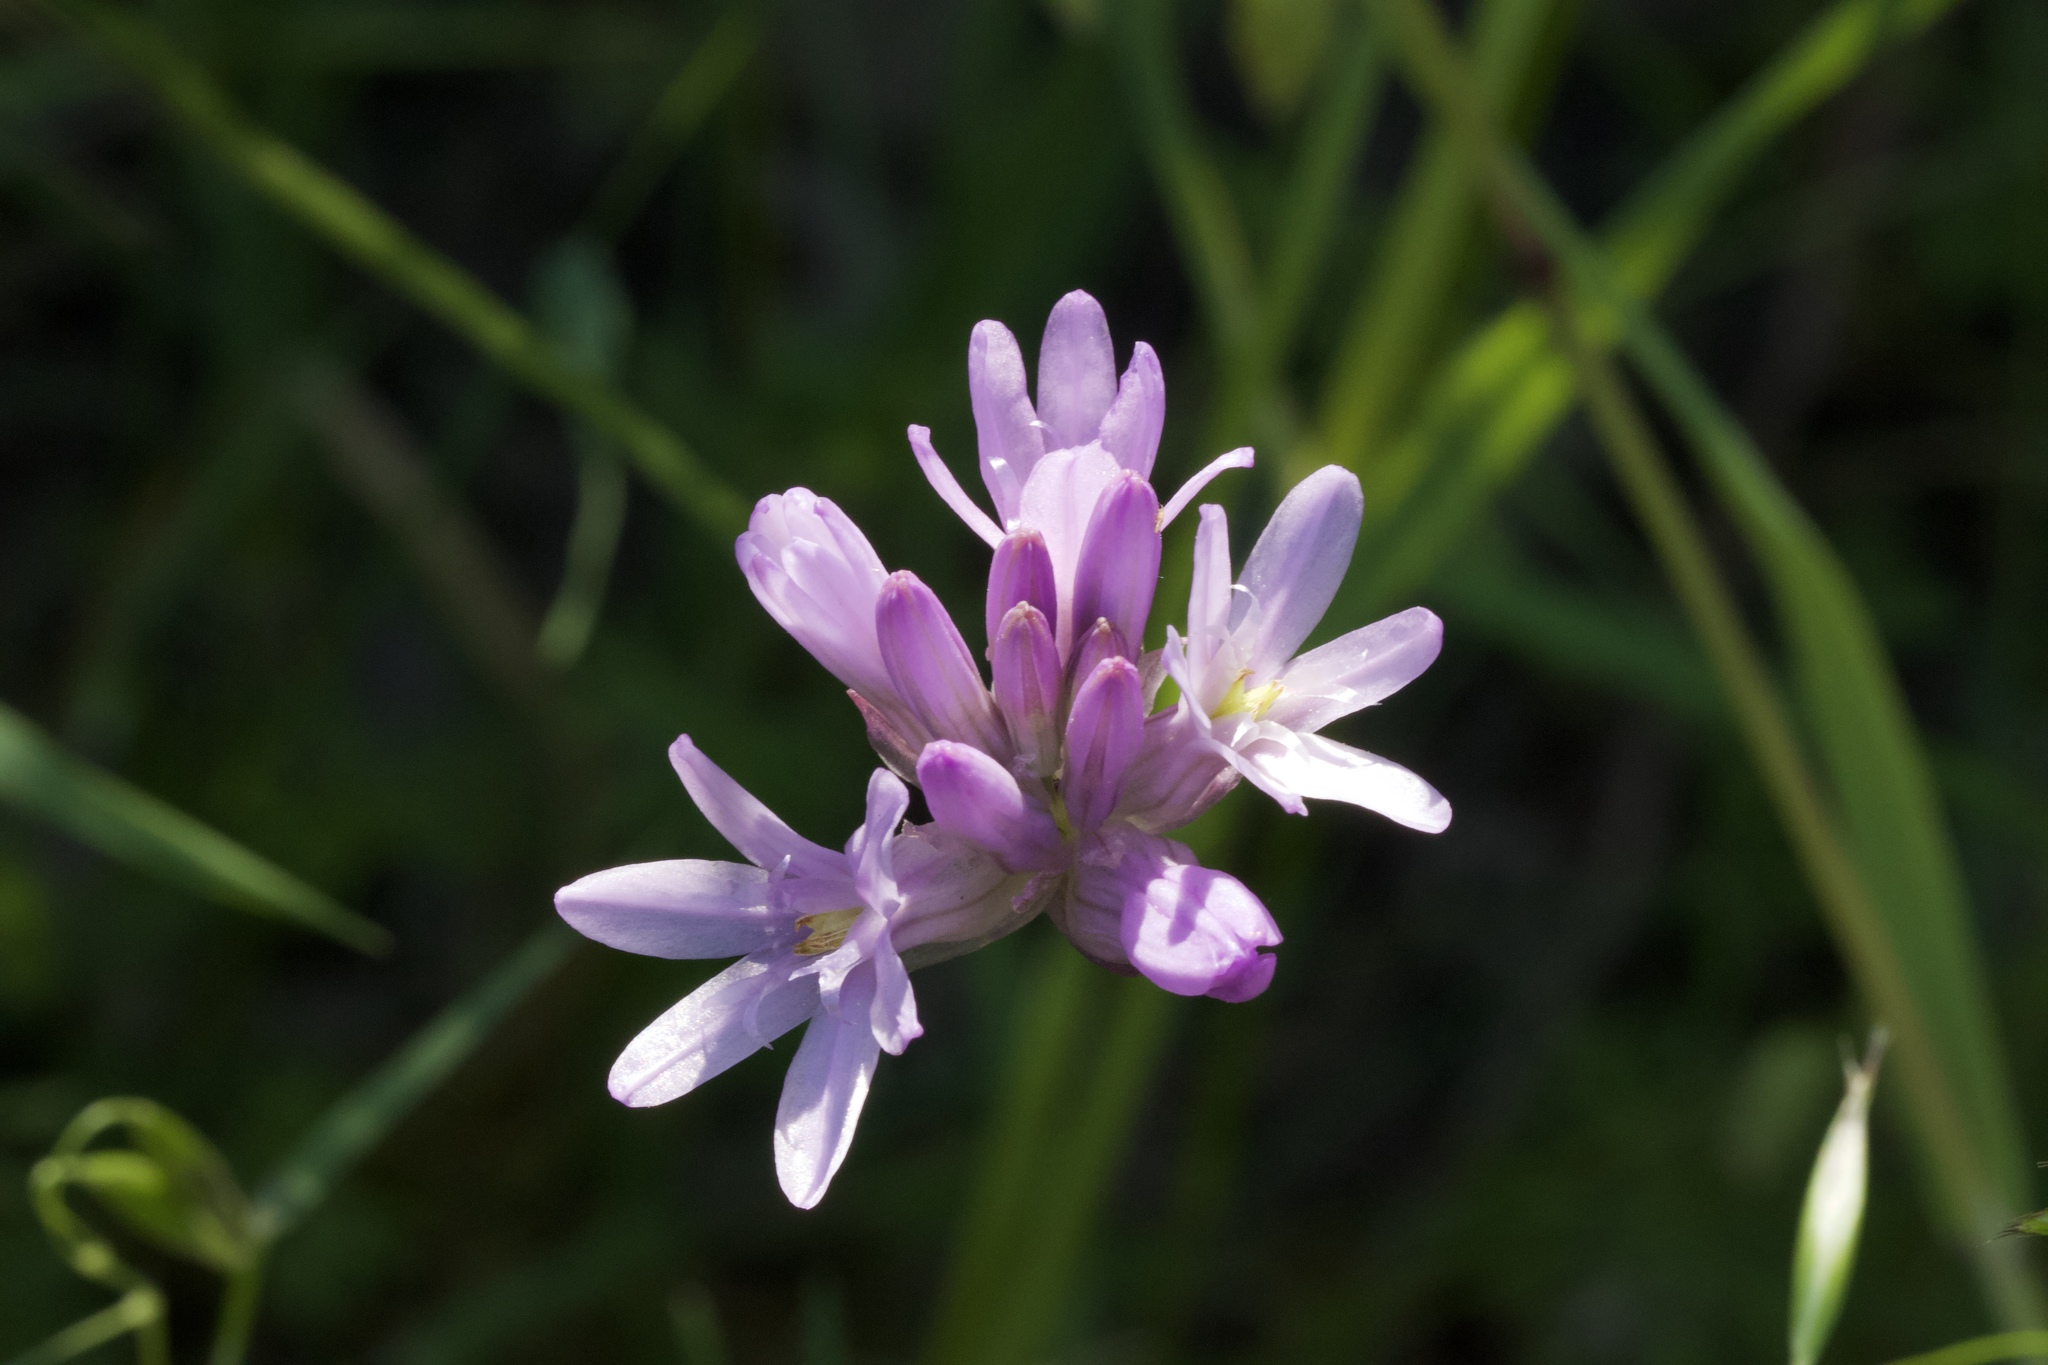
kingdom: Plantae
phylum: Tracheophyta
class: Liliopsida
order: Asparagales
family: Asparagaceae
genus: Dichelostemma
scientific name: Dichelostemma congestum
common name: Fork-tooth ookow
